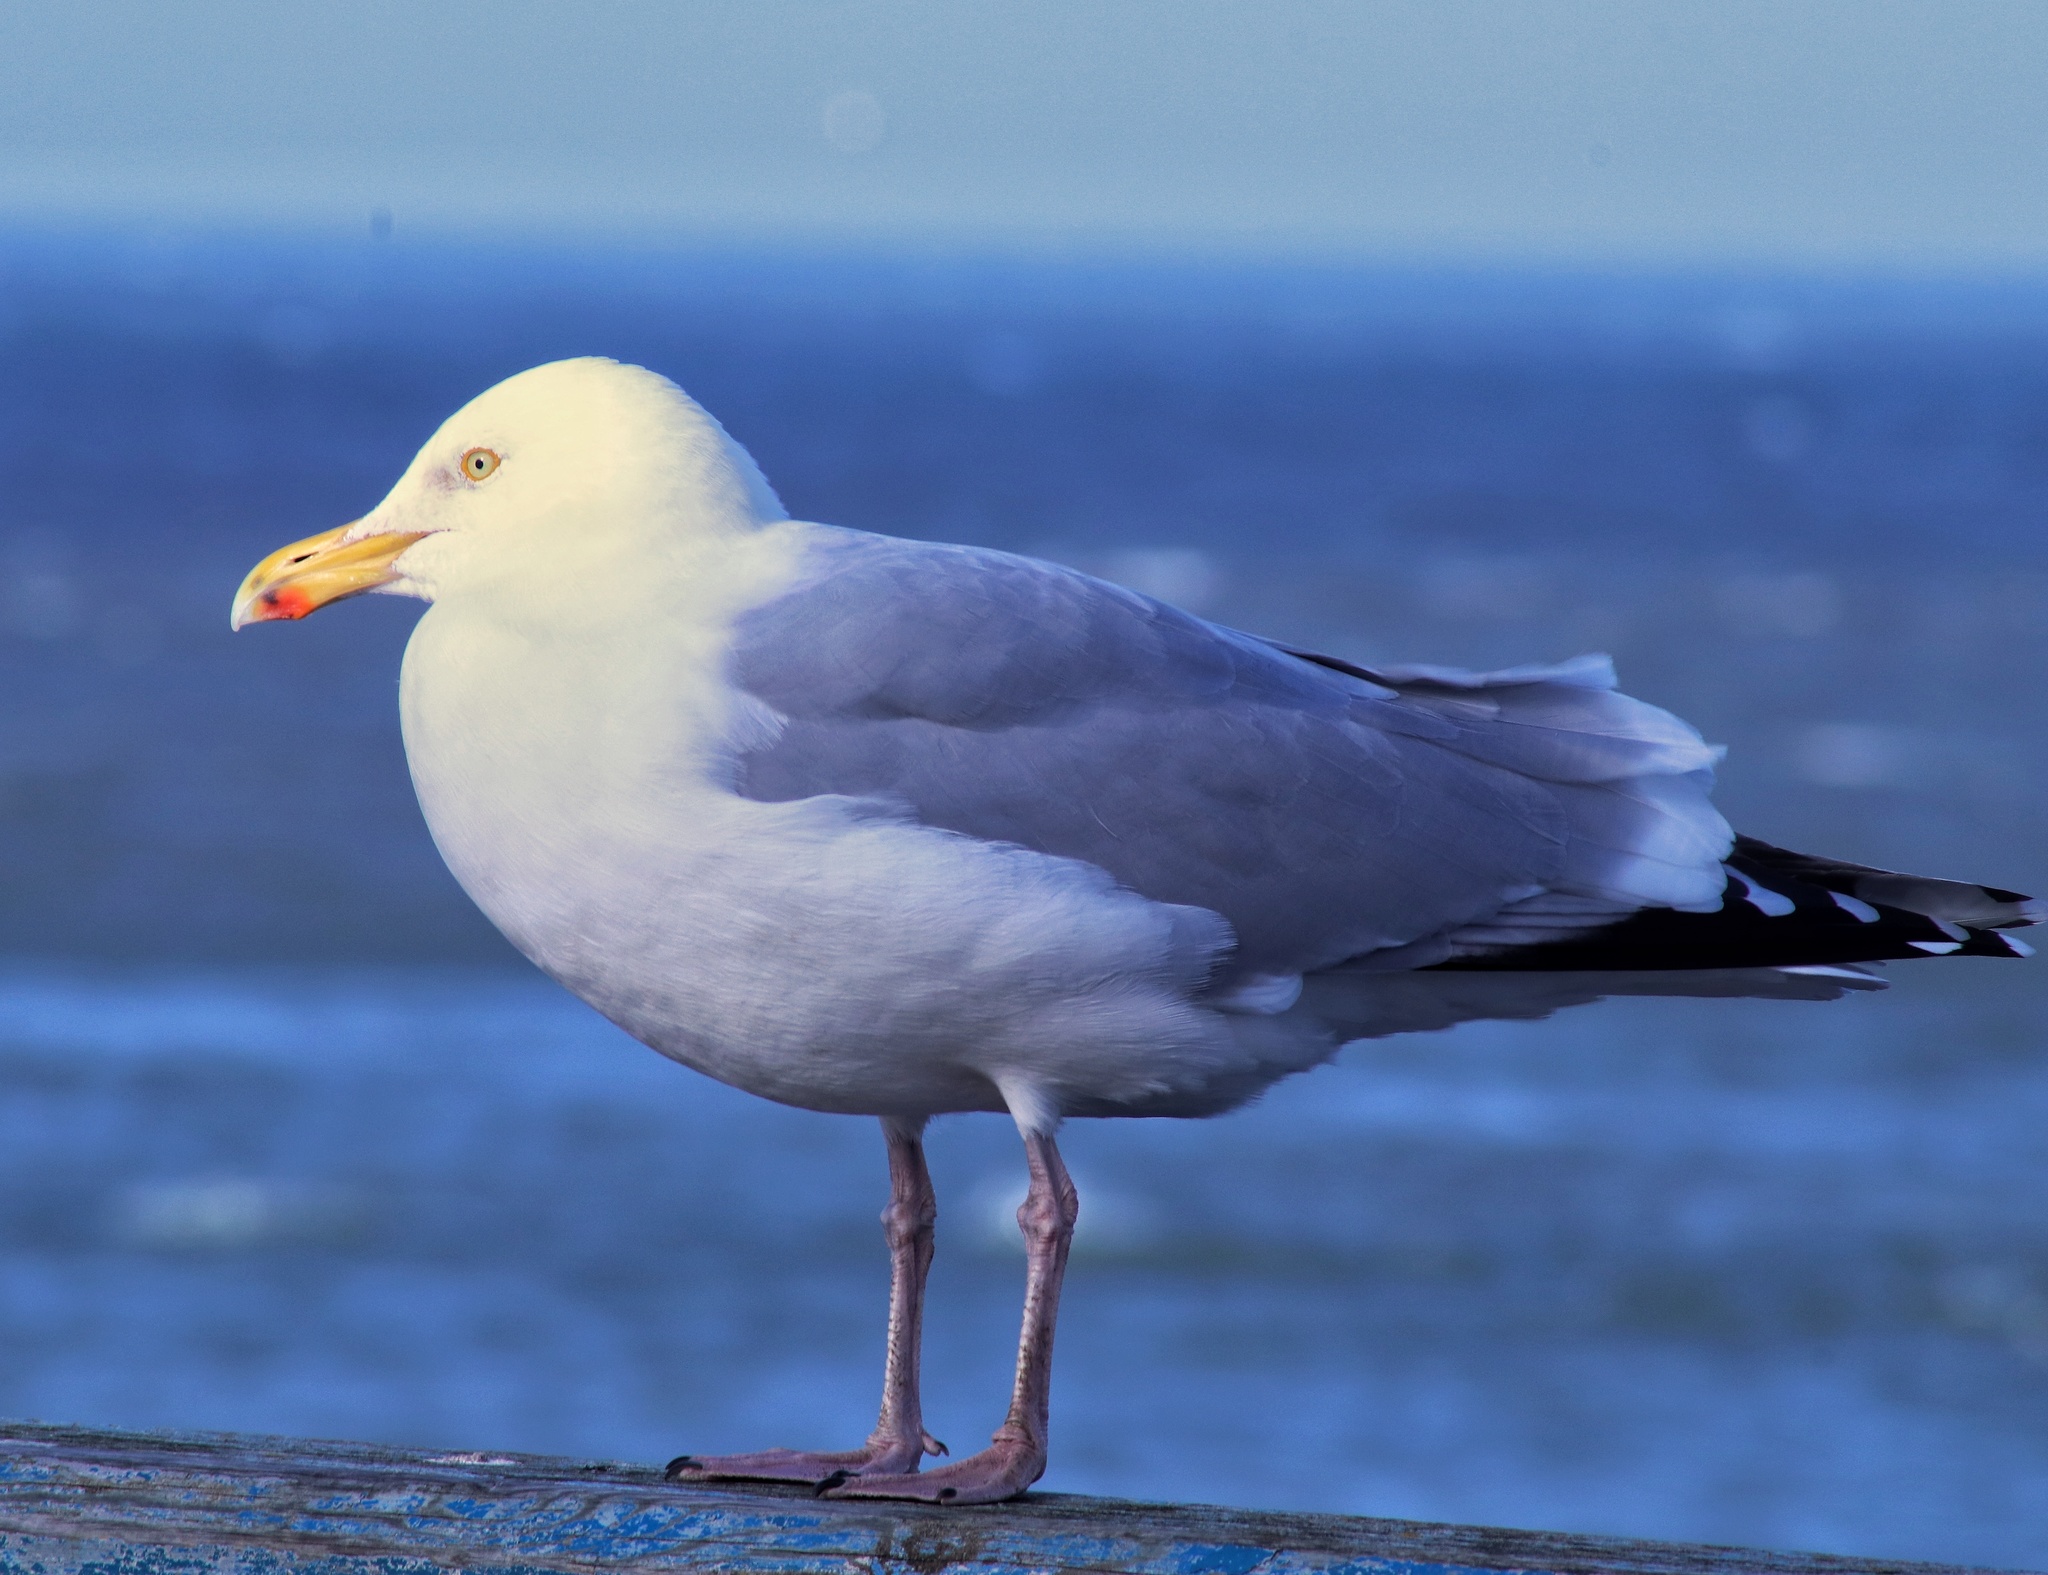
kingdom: Animalia
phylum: Chordata
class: Aves
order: Charadriiformes
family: Laridae
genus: Larus
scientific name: Larus argentatus
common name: Herring gull
